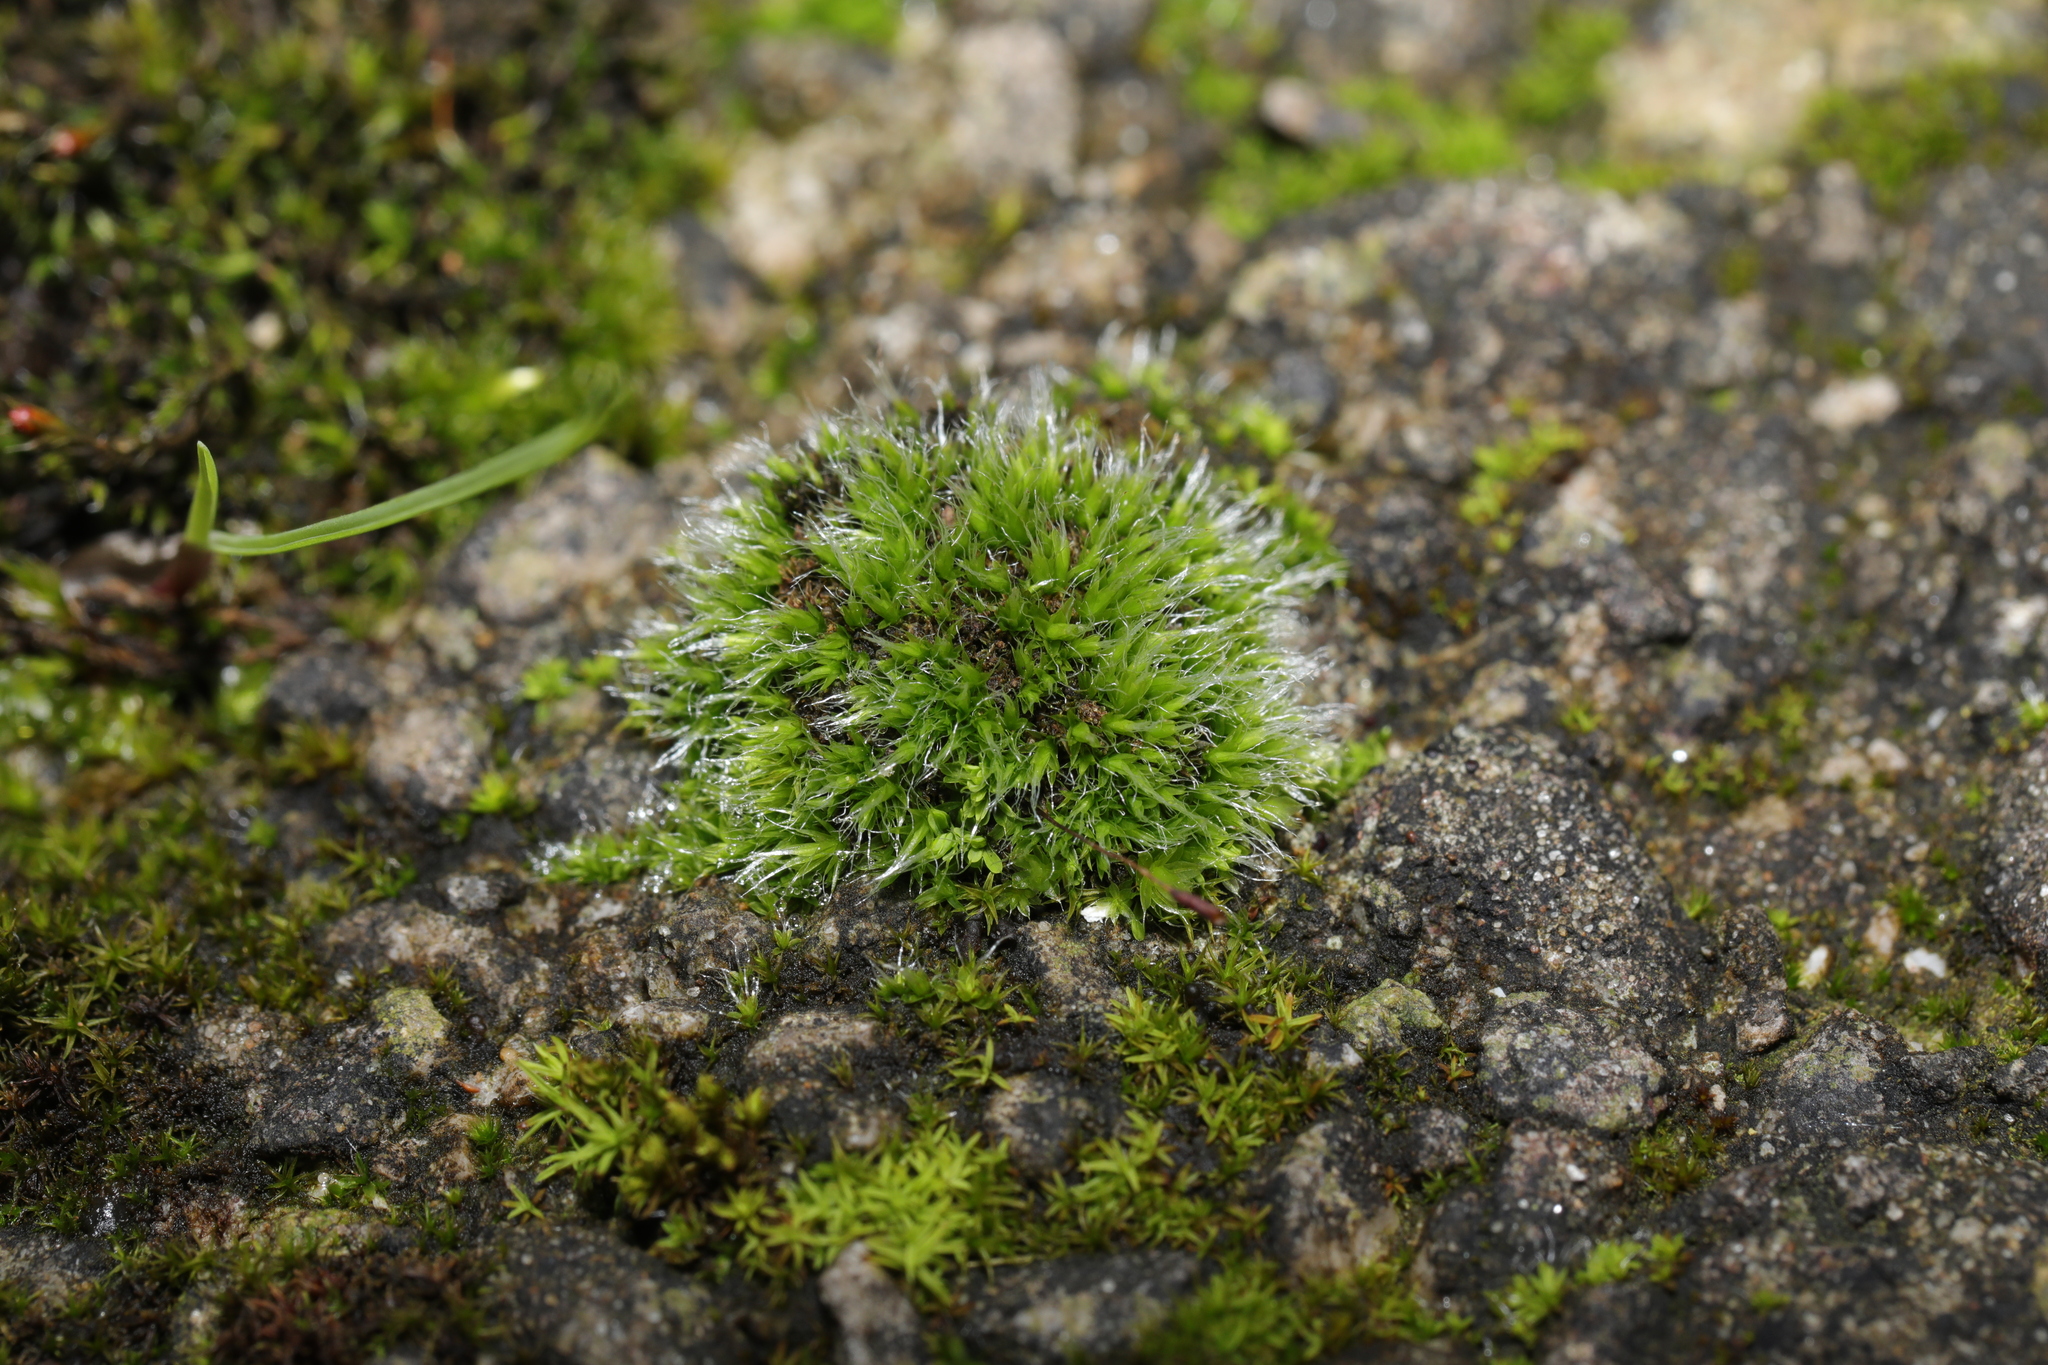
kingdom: Plantae
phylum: Bryophyta
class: Bryopsida
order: Grimmiales
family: Grimmiaceae
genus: Grimmia
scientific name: Grimmia pulvinata
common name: Grey-cushioned grimmia
